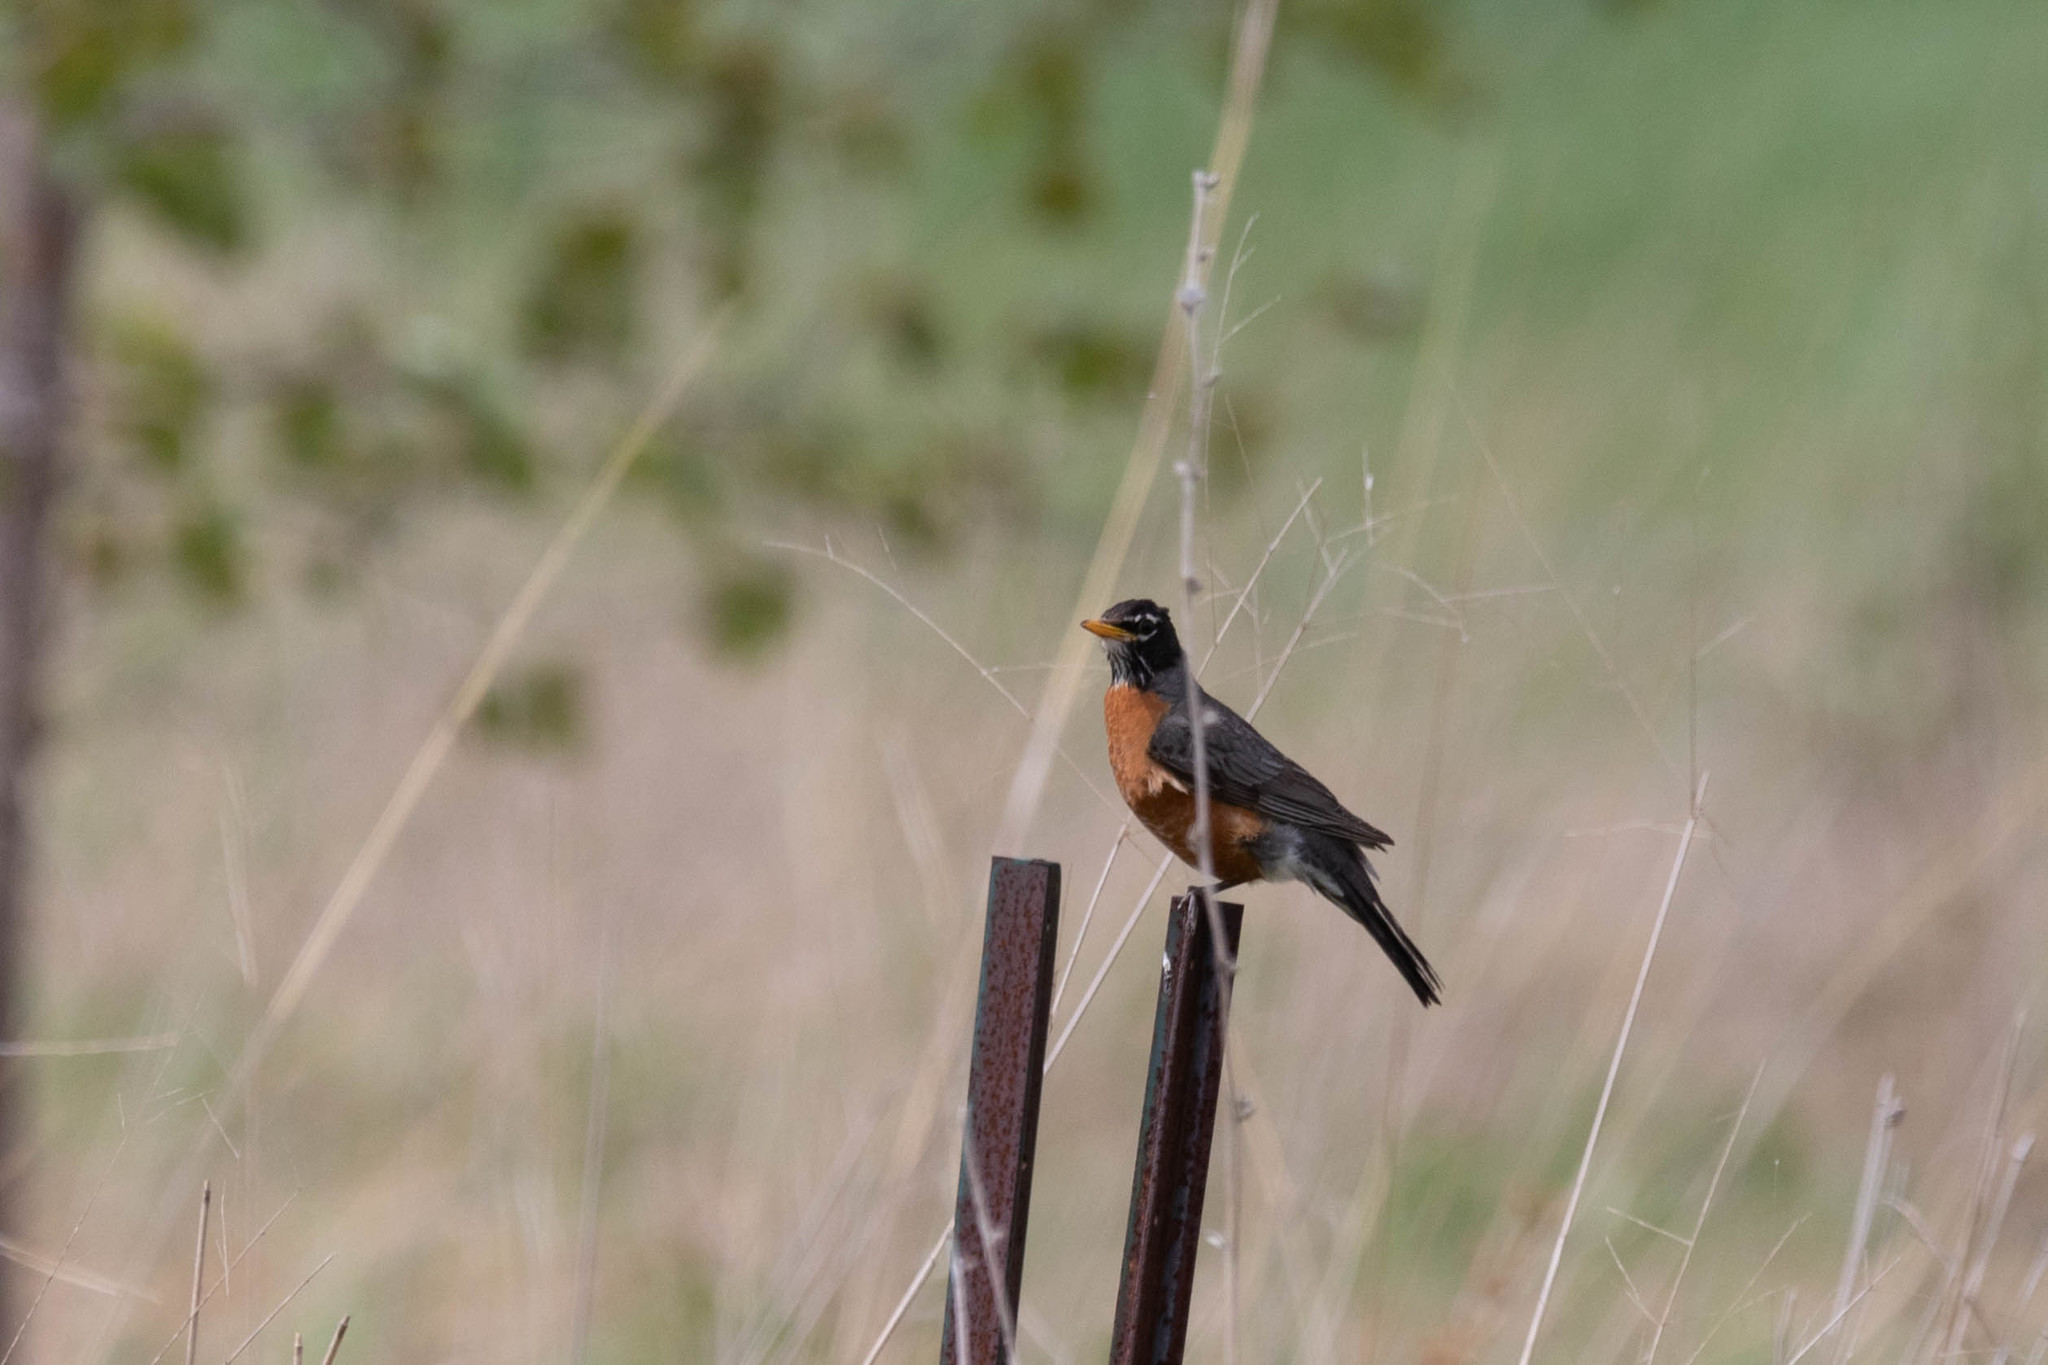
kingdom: Animalia
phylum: Chordata
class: Aves
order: Passeriformes
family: Turdidae
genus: Turdus
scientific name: Turdus migratorius
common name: American robin
